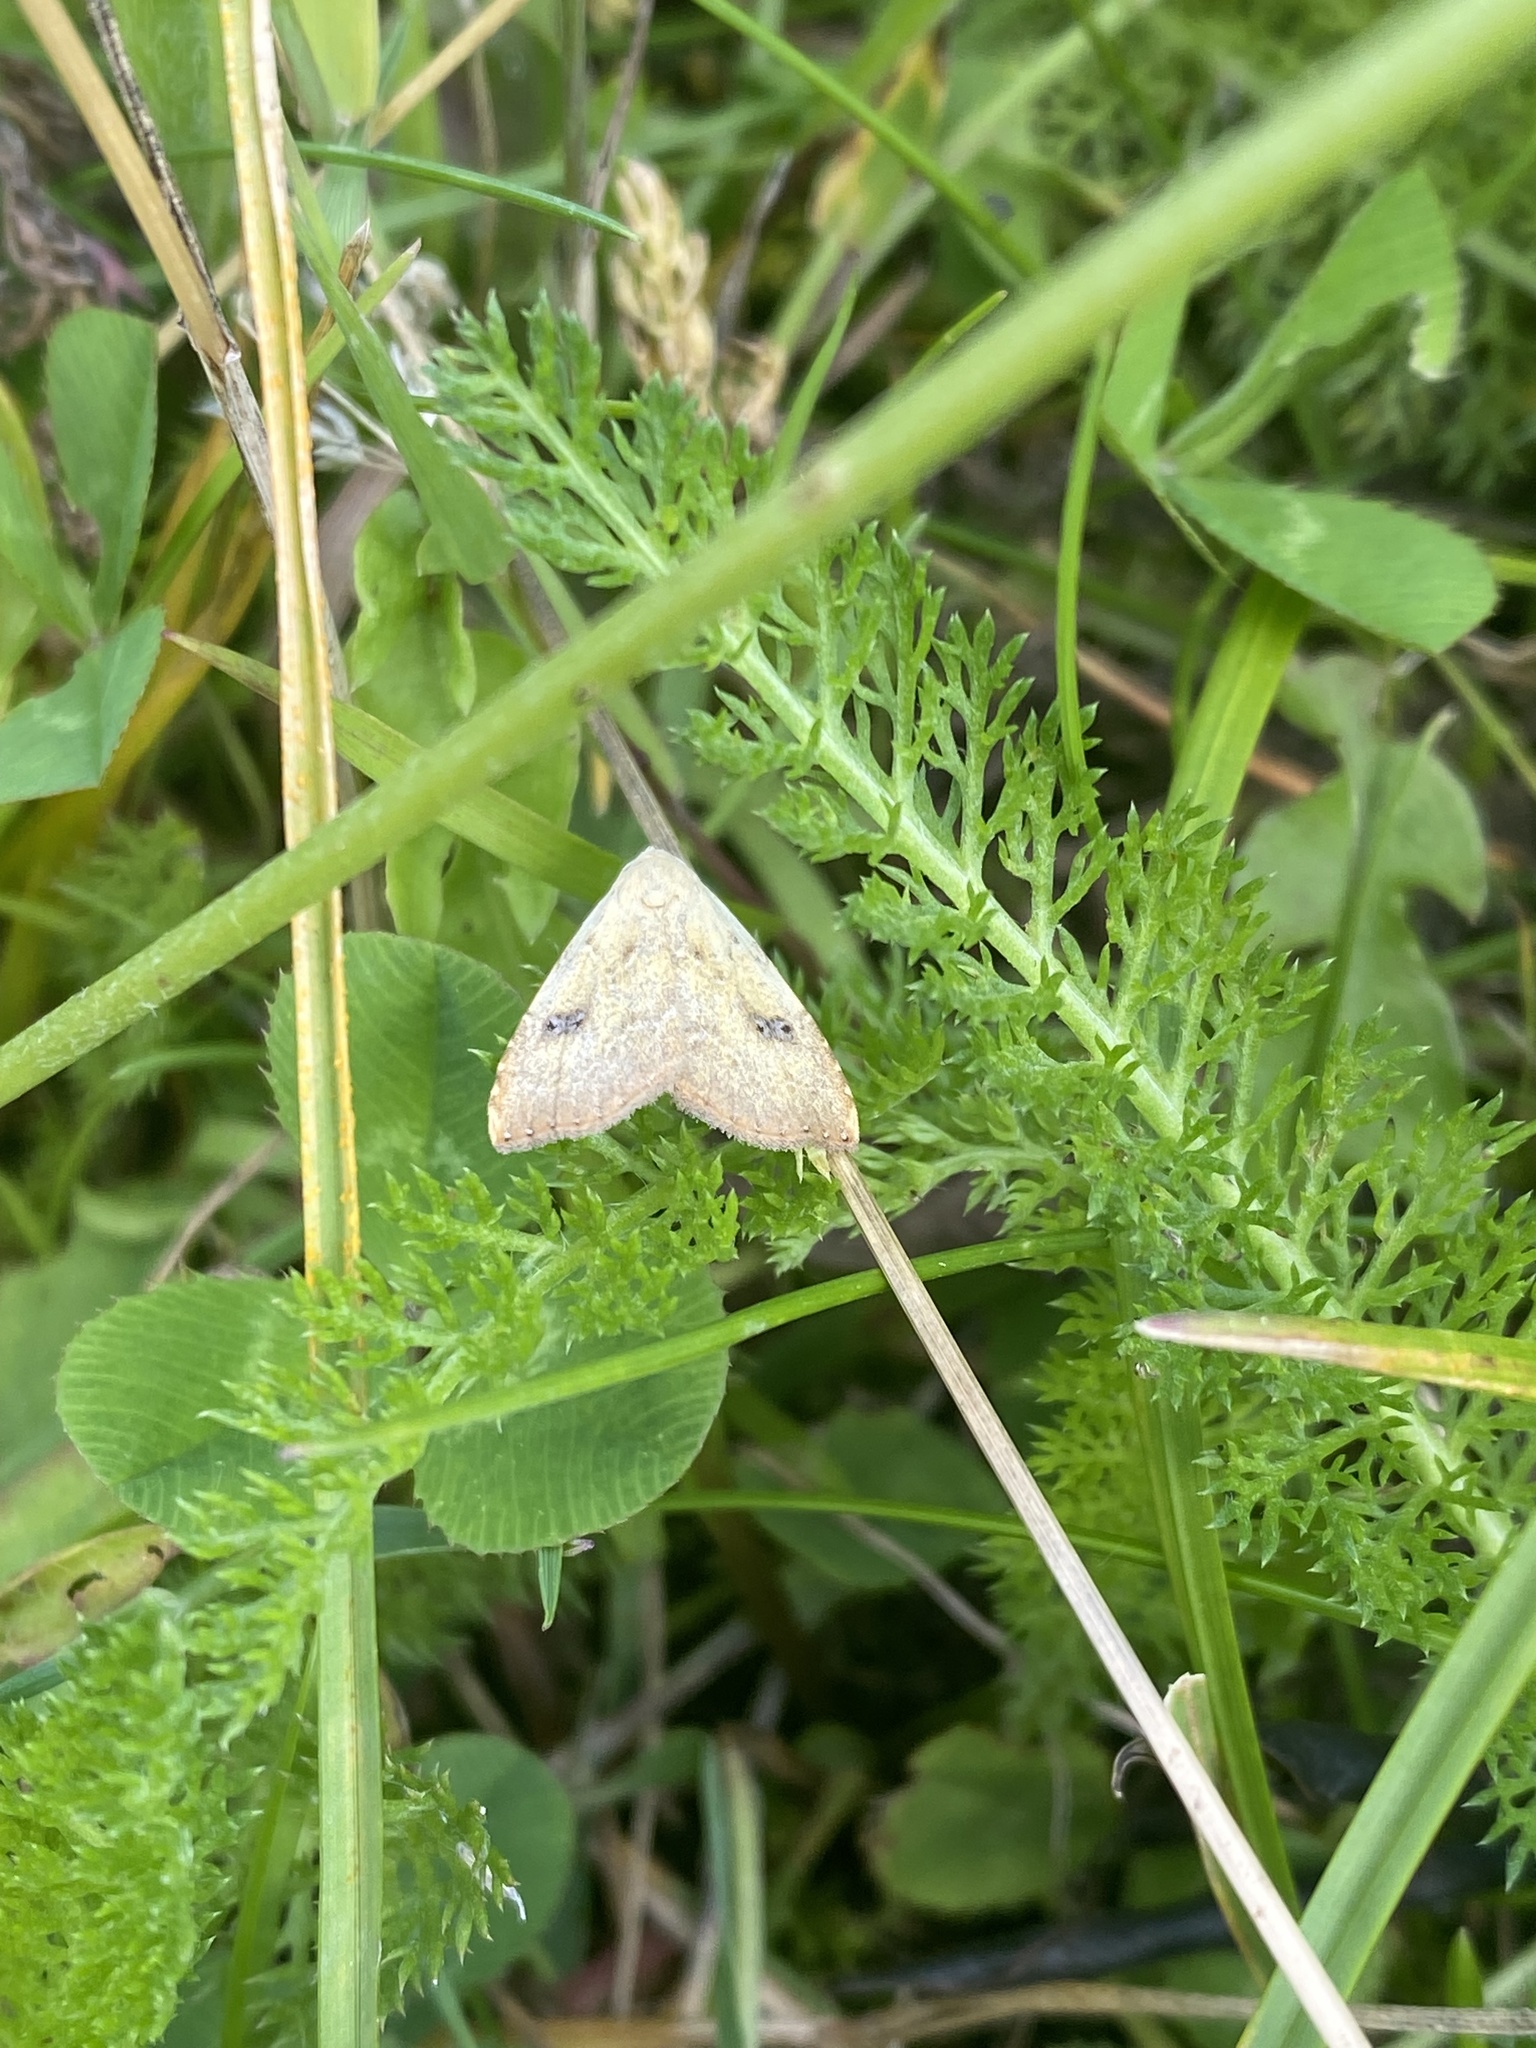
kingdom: Animalia
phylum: Arthropoda
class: Insecta
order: Lepidoptera
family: Erebidae
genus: Rivula
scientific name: Rivula sericealis
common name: Straw dot
